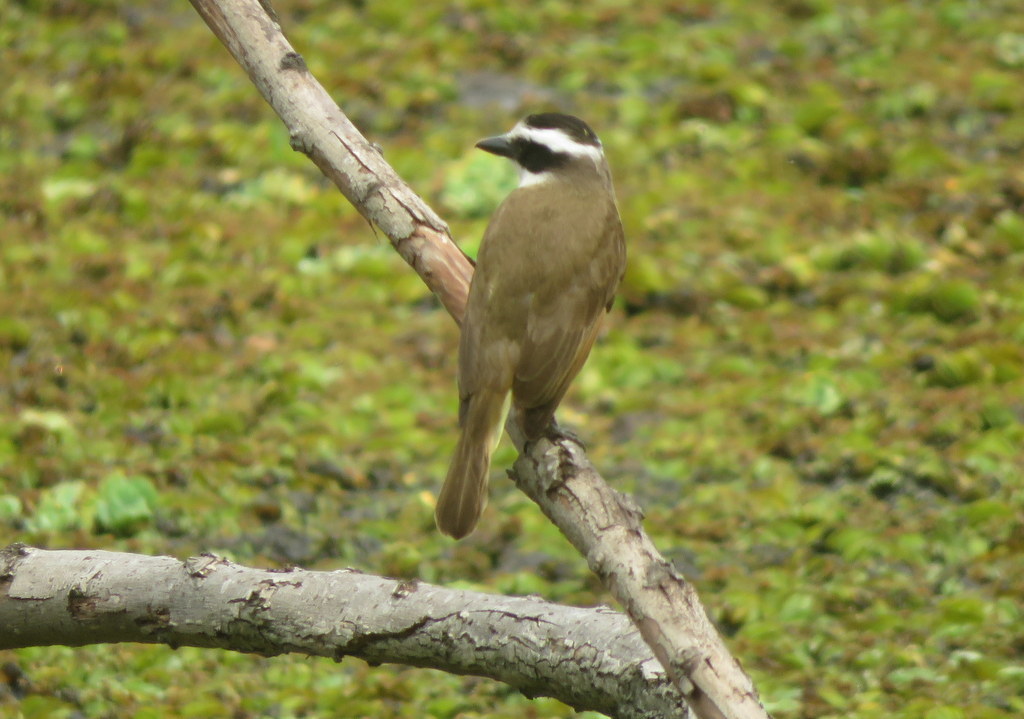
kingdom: Animalia
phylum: Chordata
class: Aves
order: Passeriformes
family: Tyrannidae
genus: Pitangus
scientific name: Pitangus sulphuratus
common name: Great kiskadee
